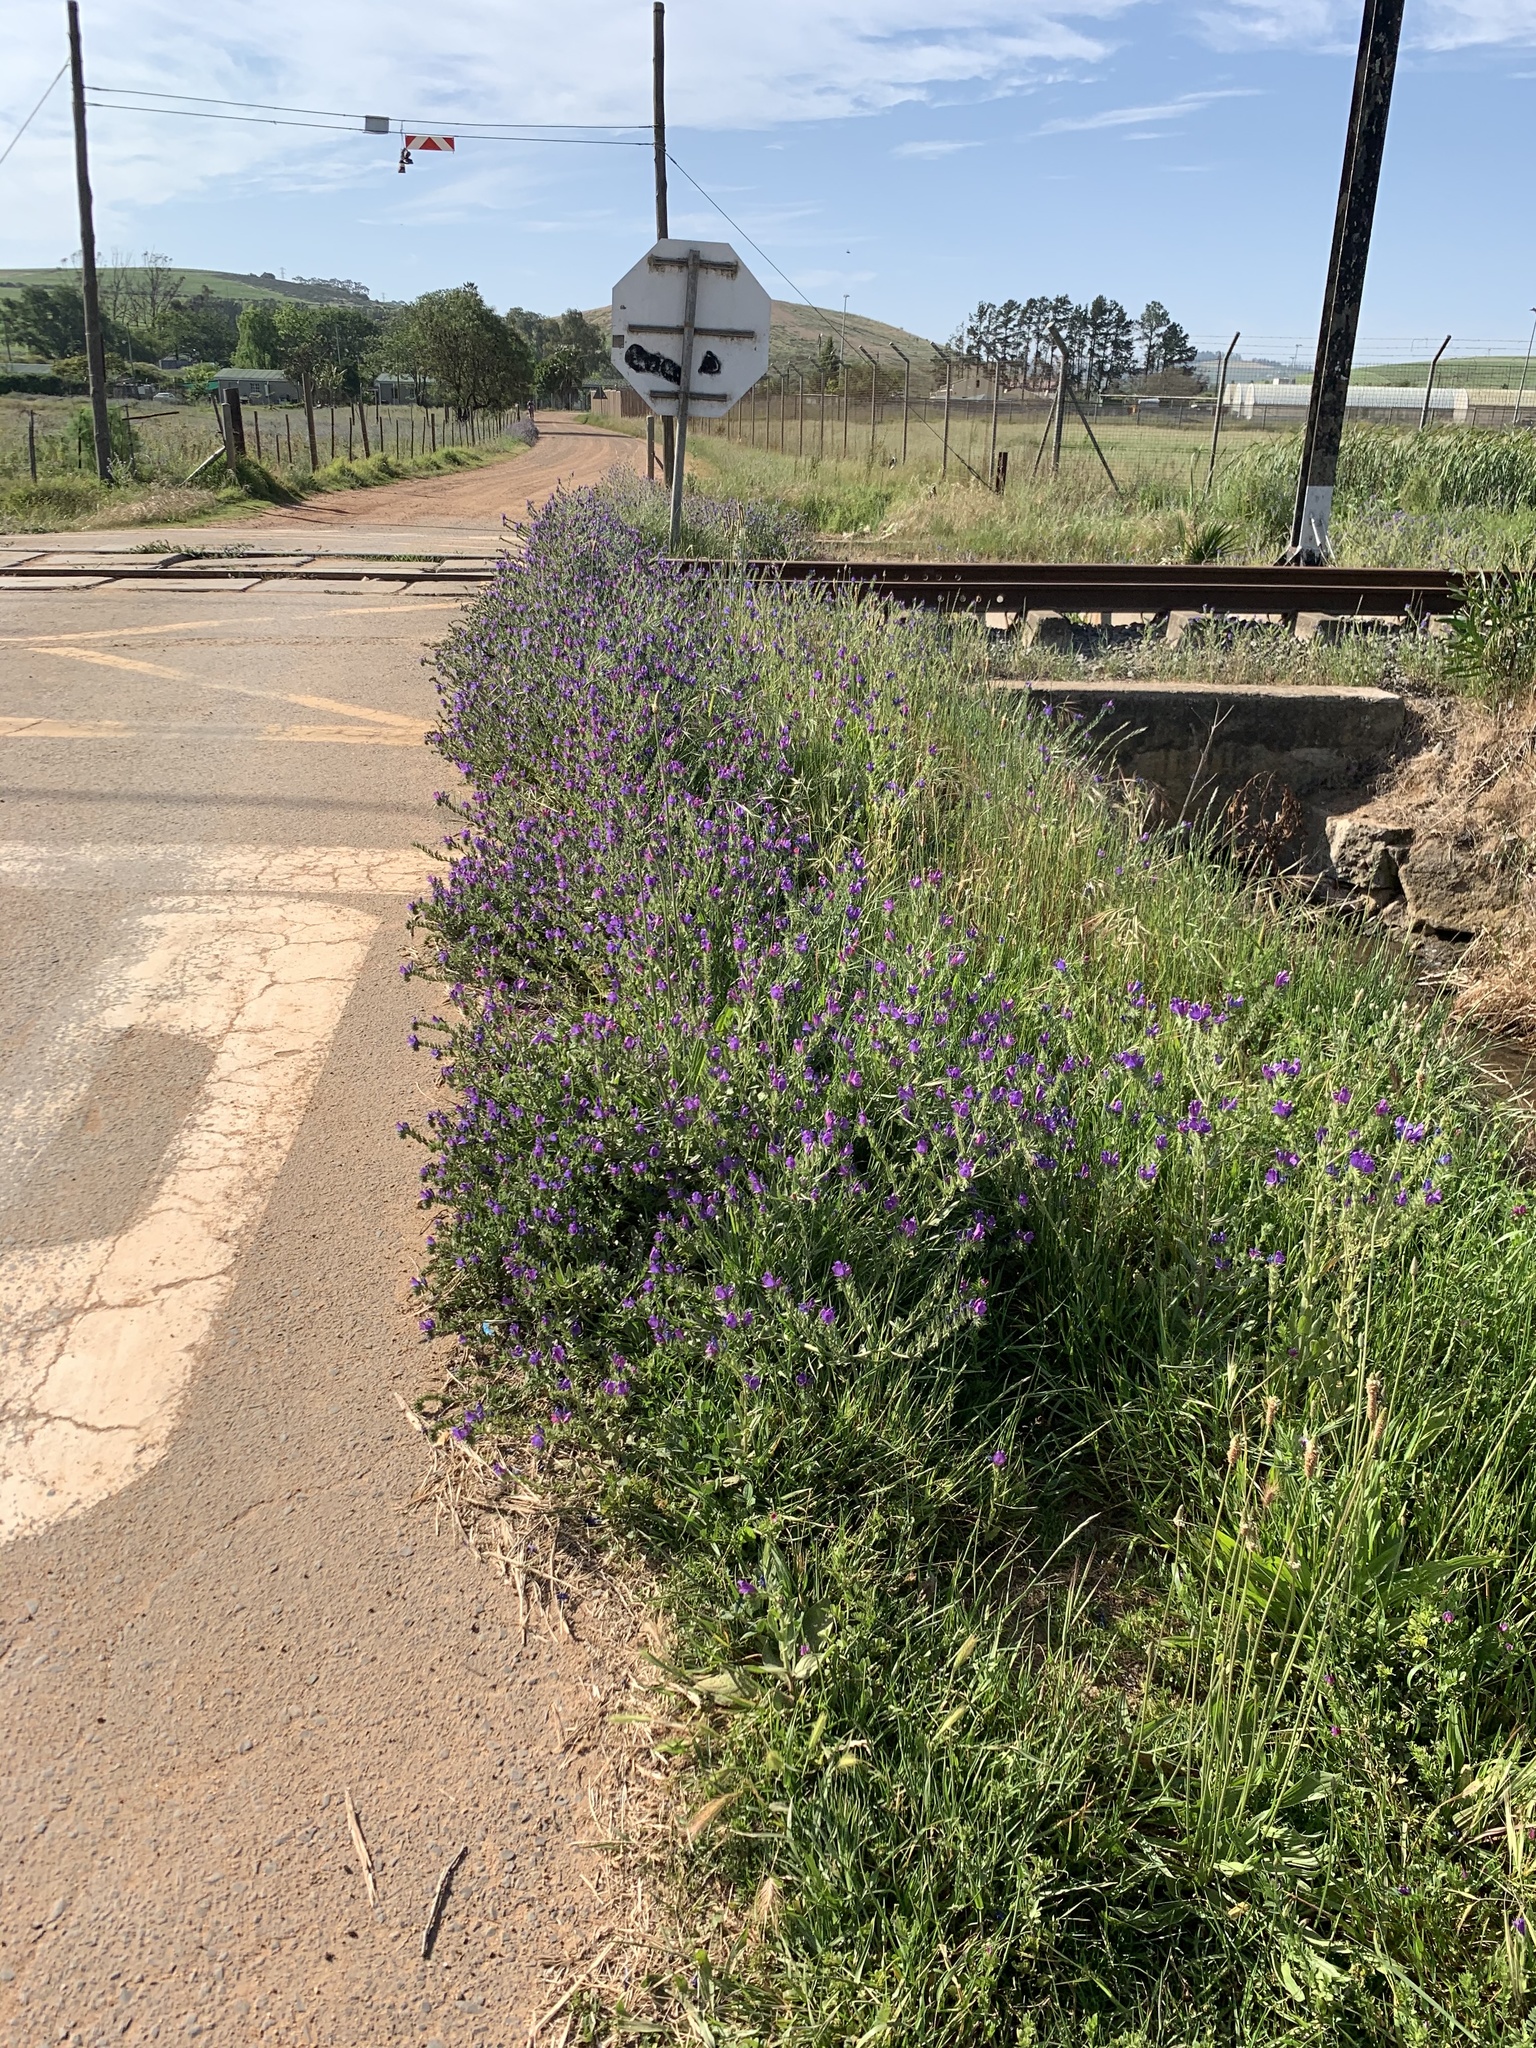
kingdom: Plantae
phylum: Tracheophyta
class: Magnoliopsida
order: Boraginales
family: Boraginaceae
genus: Echium
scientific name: Echium plantagineum
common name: Purple viper's-bugloss
